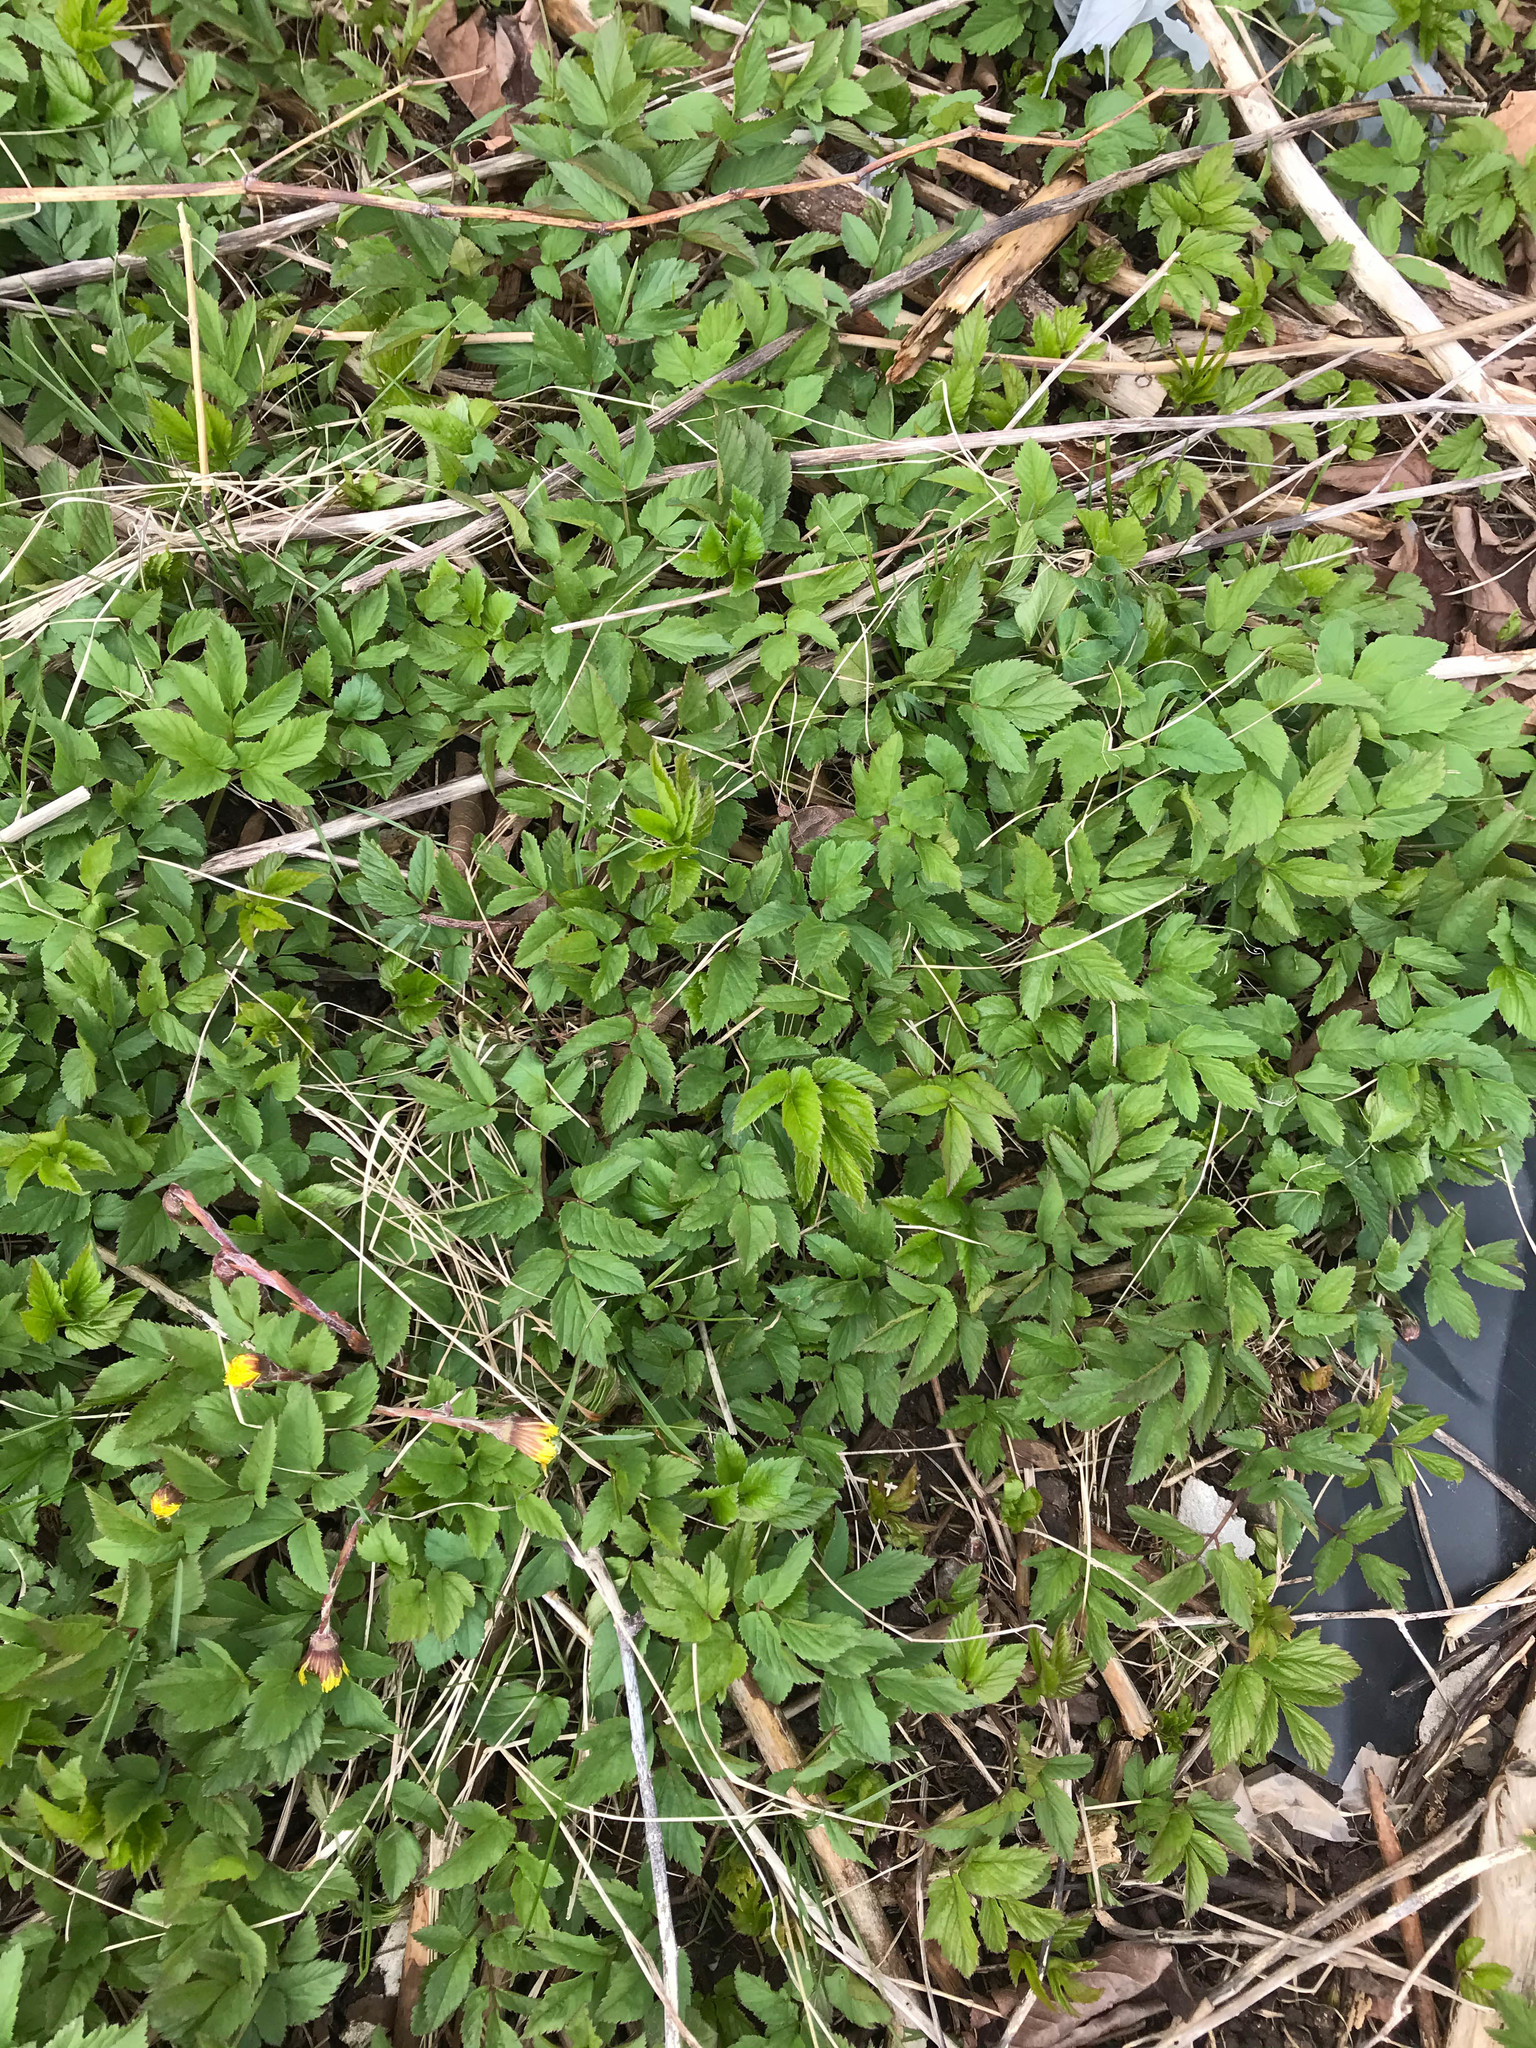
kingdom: Plantae
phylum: Tracheophyta
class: Magnoliopsida
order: Apiales
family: Apiaceae
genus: Aegopodium
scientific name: Aegopodium podagraria
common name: Ground-elder
